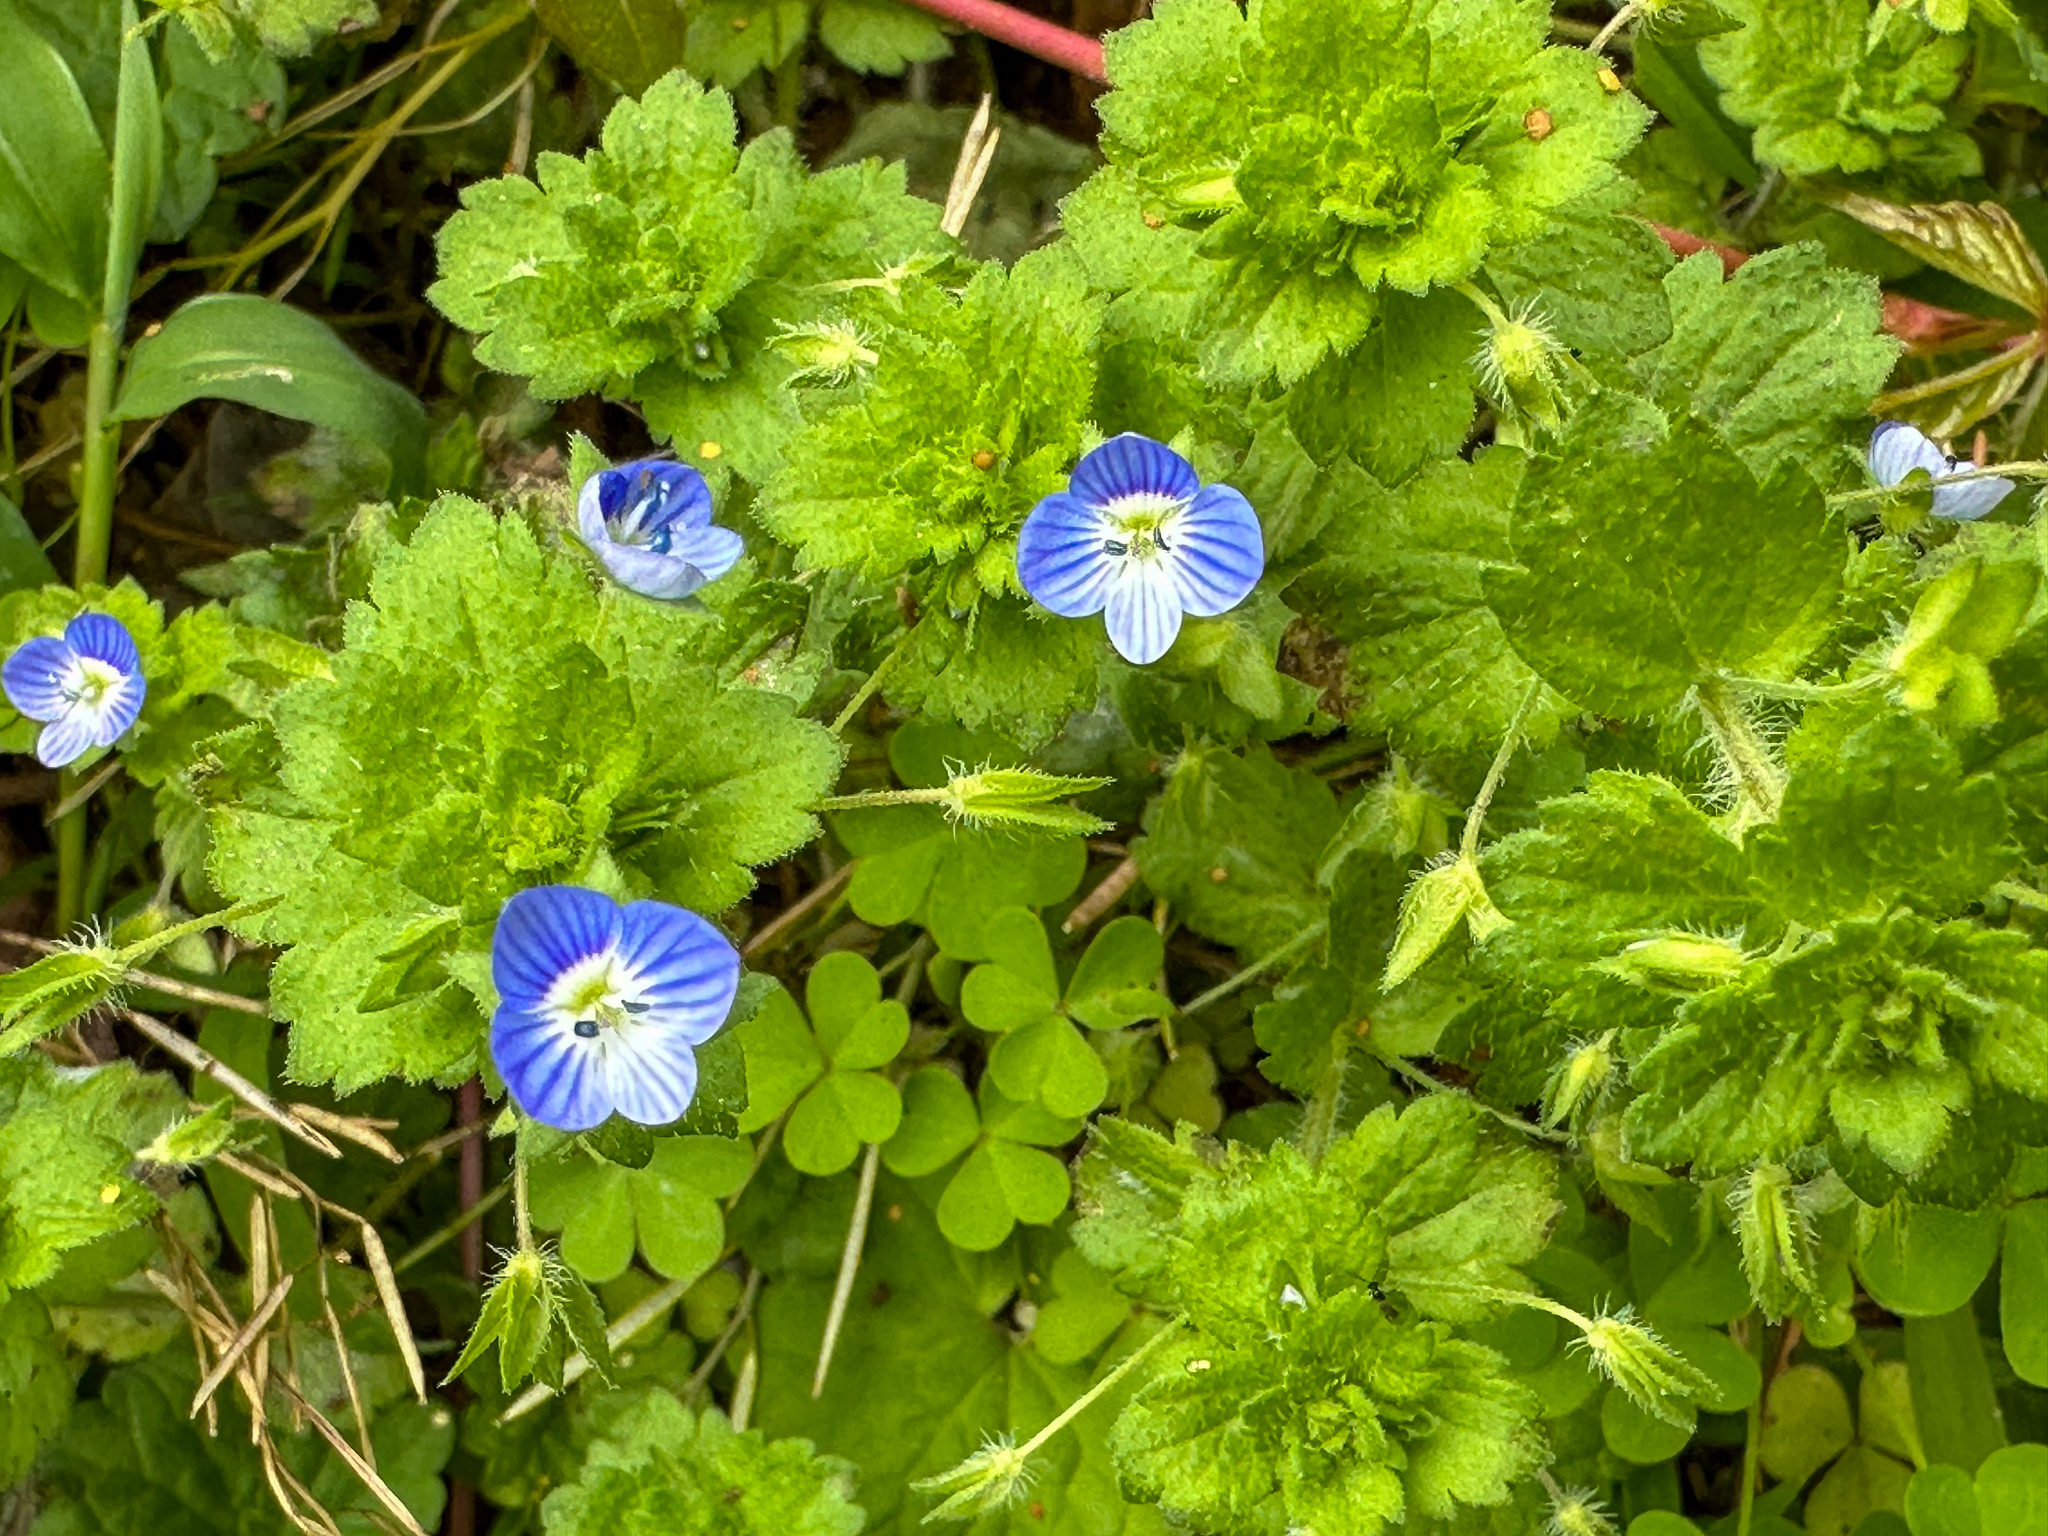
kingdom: Plantae
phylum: Tracheophyta
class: Magnoliopsida
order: Lamiales
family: Plantaginaceae
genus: Veronica
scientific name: Veronica persica
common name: Common field-speedwell
